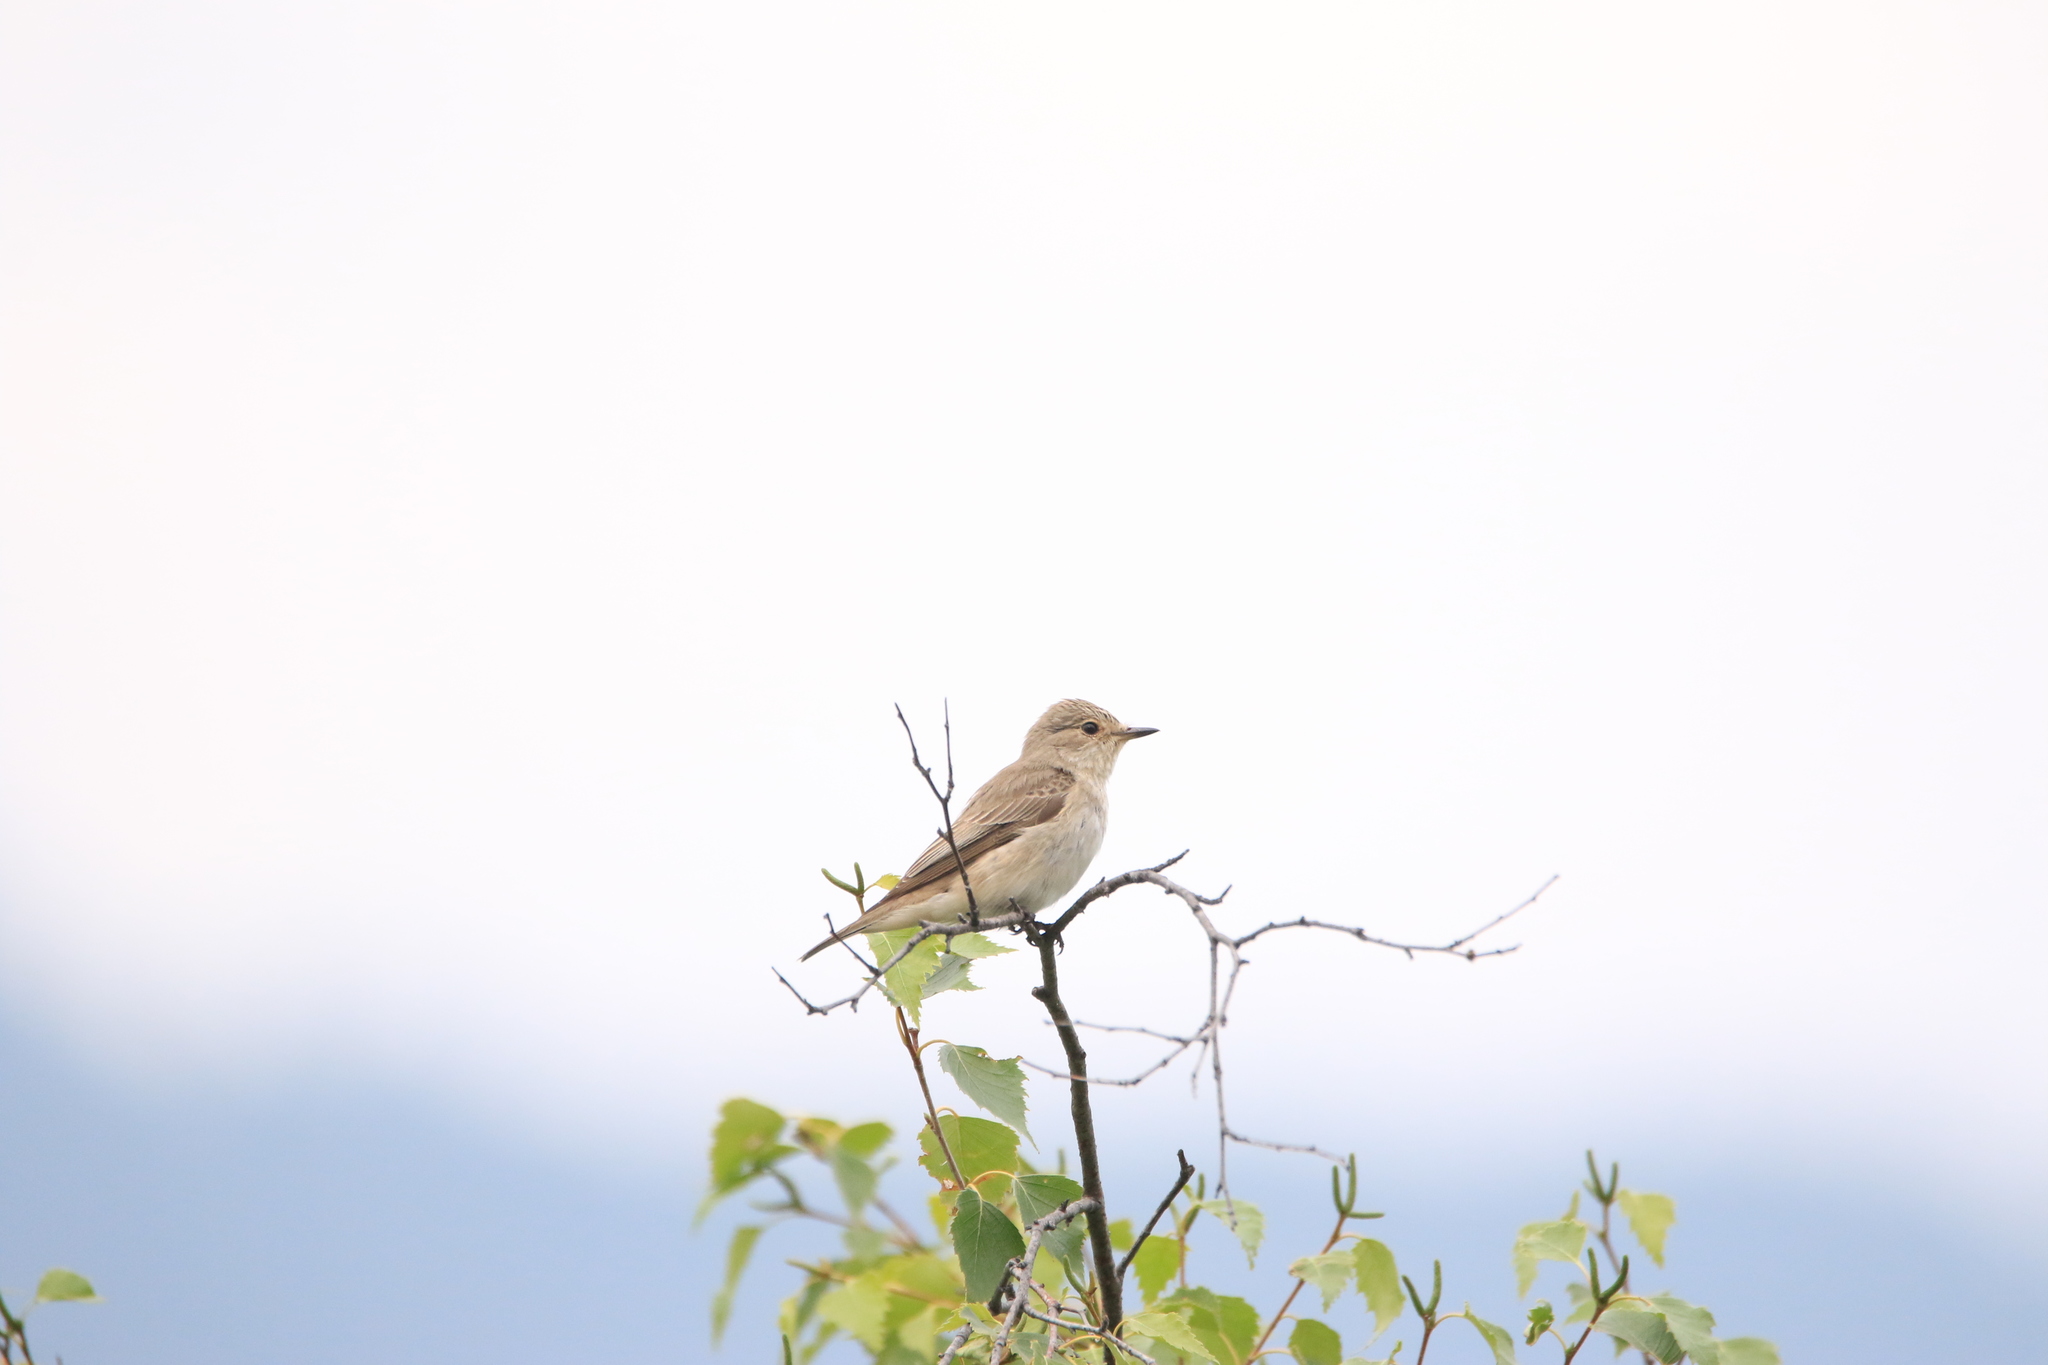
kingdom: Animalia
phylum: Chordata
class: Aves
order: Passeriformes
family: Muscicapidae
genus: Muscicapa
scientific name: Muscicapa striata
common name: Spotted flycatcher
